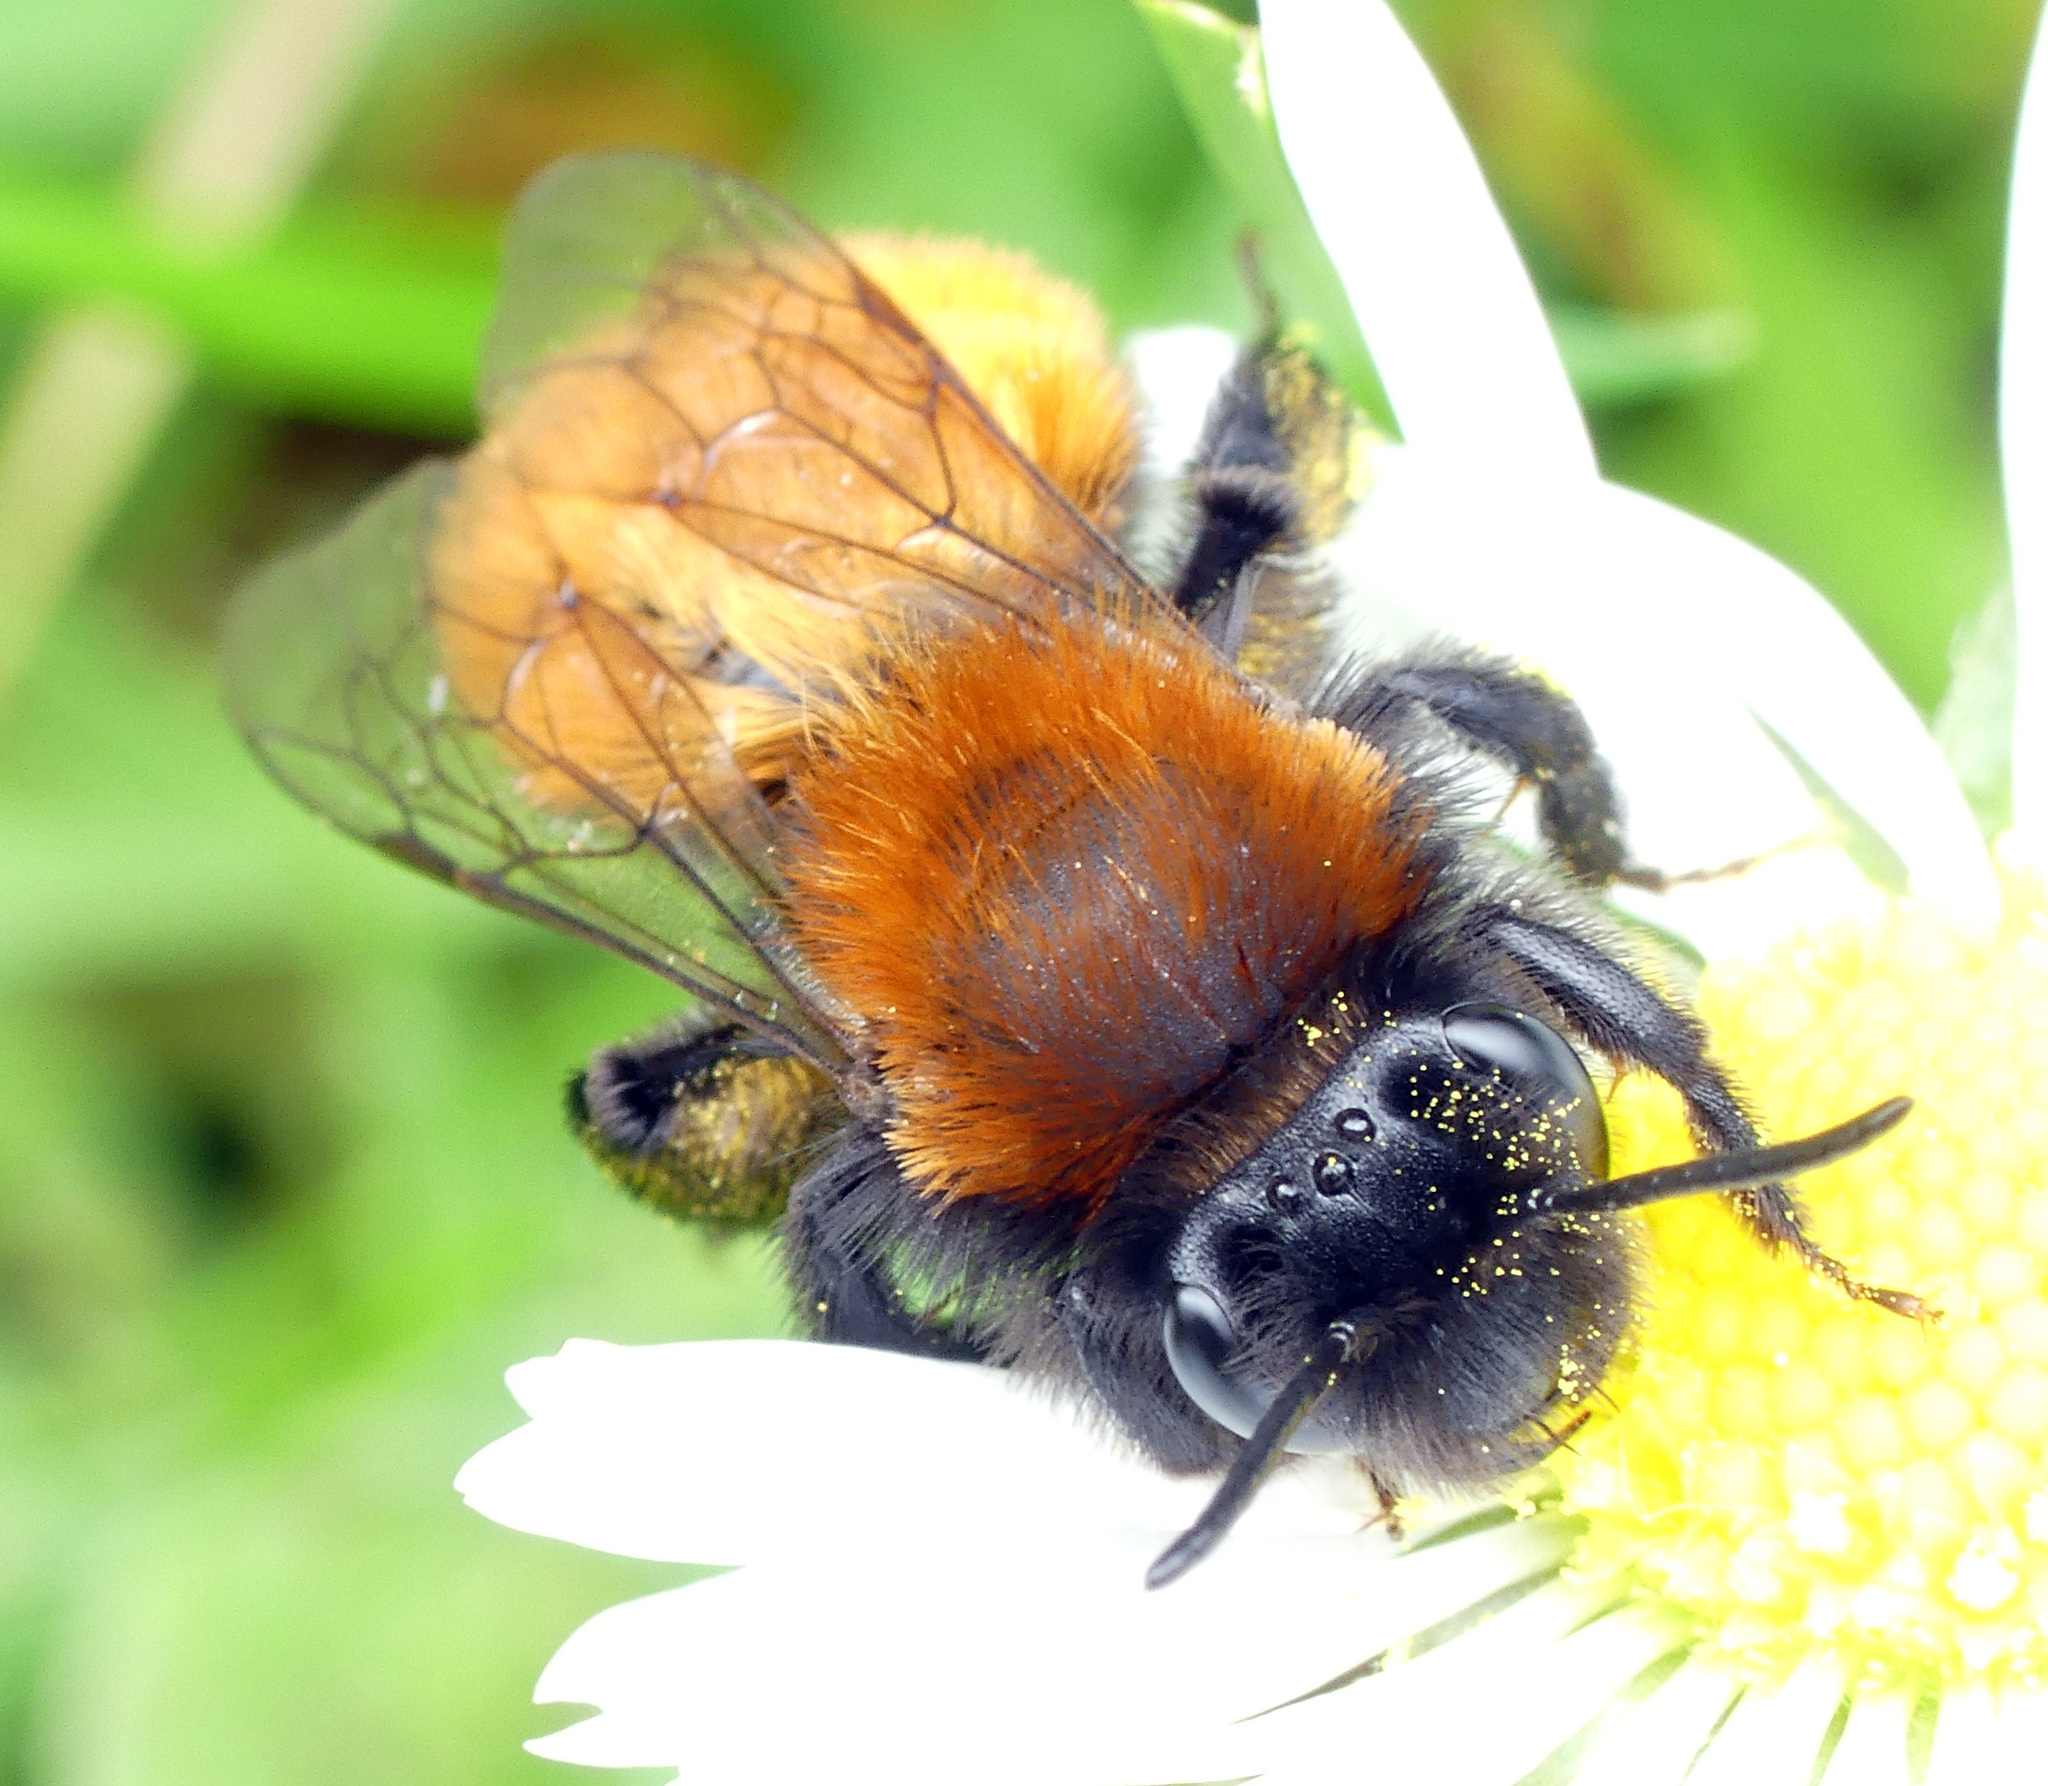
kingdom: Animalia
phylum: Arthropoda
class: Insecta
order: Hymenoptera
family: Andrenidae
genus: Andrena
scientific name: Andrena fulva
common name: Tawny mining bee
